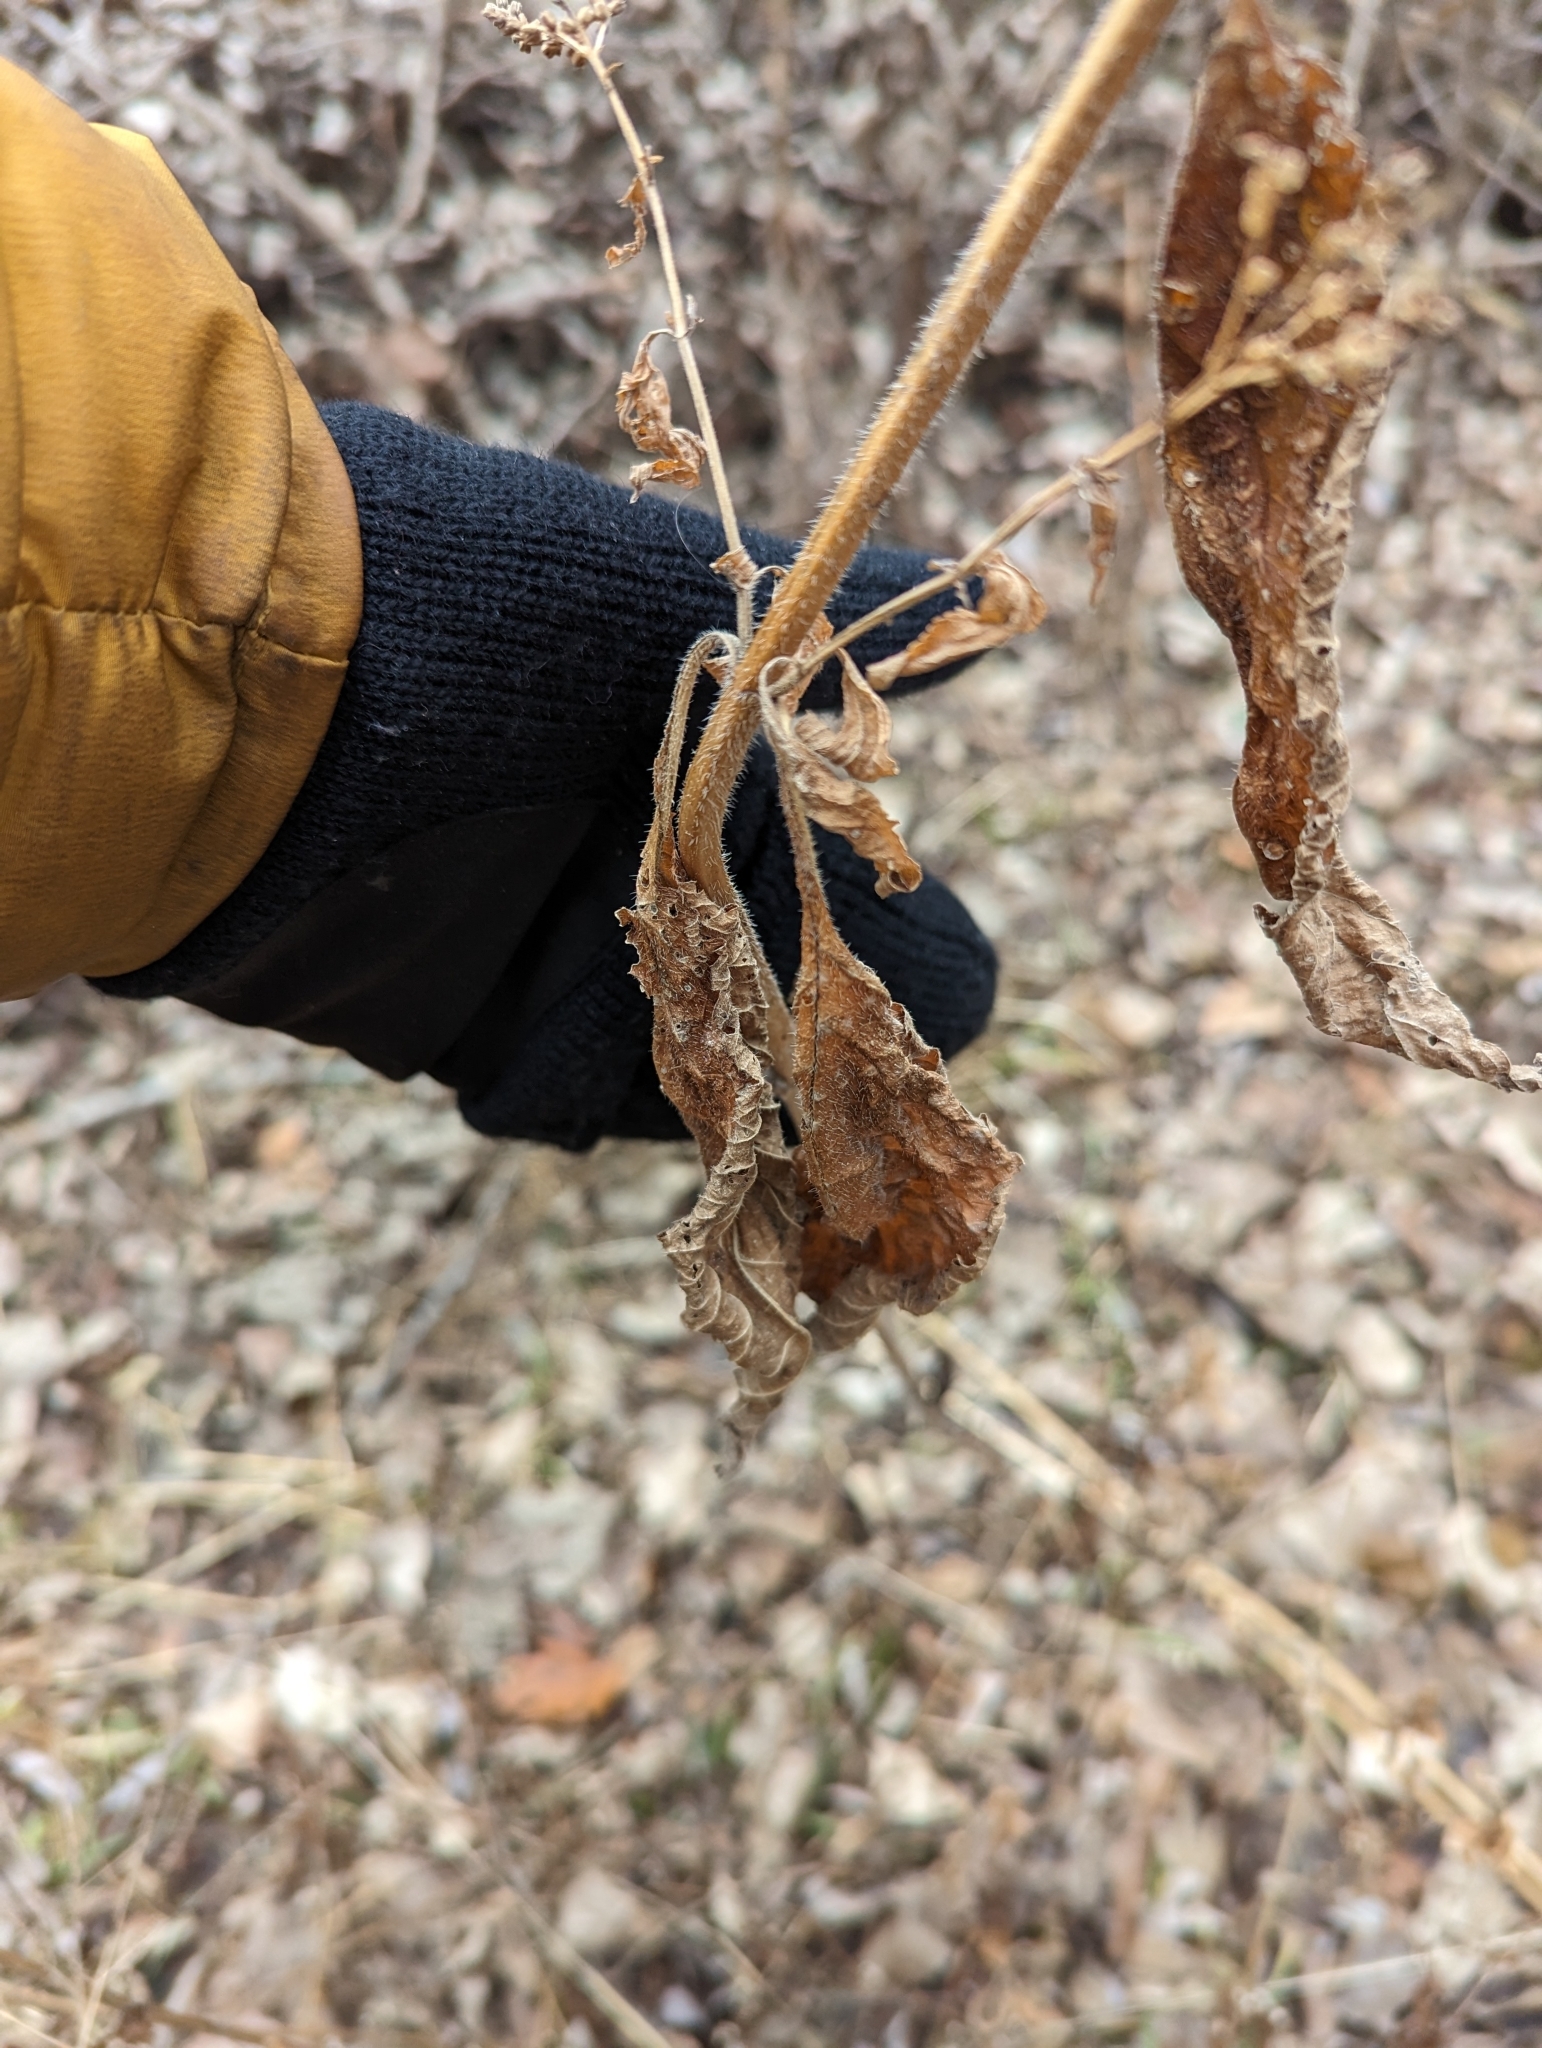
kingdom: Plantae
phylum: Tracheophyta
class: Magnoliopsida
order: Lamiales
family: Verbenaceae
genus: Verbena
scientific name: Verbena urticifolia
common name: Nettle-leaved vervain
